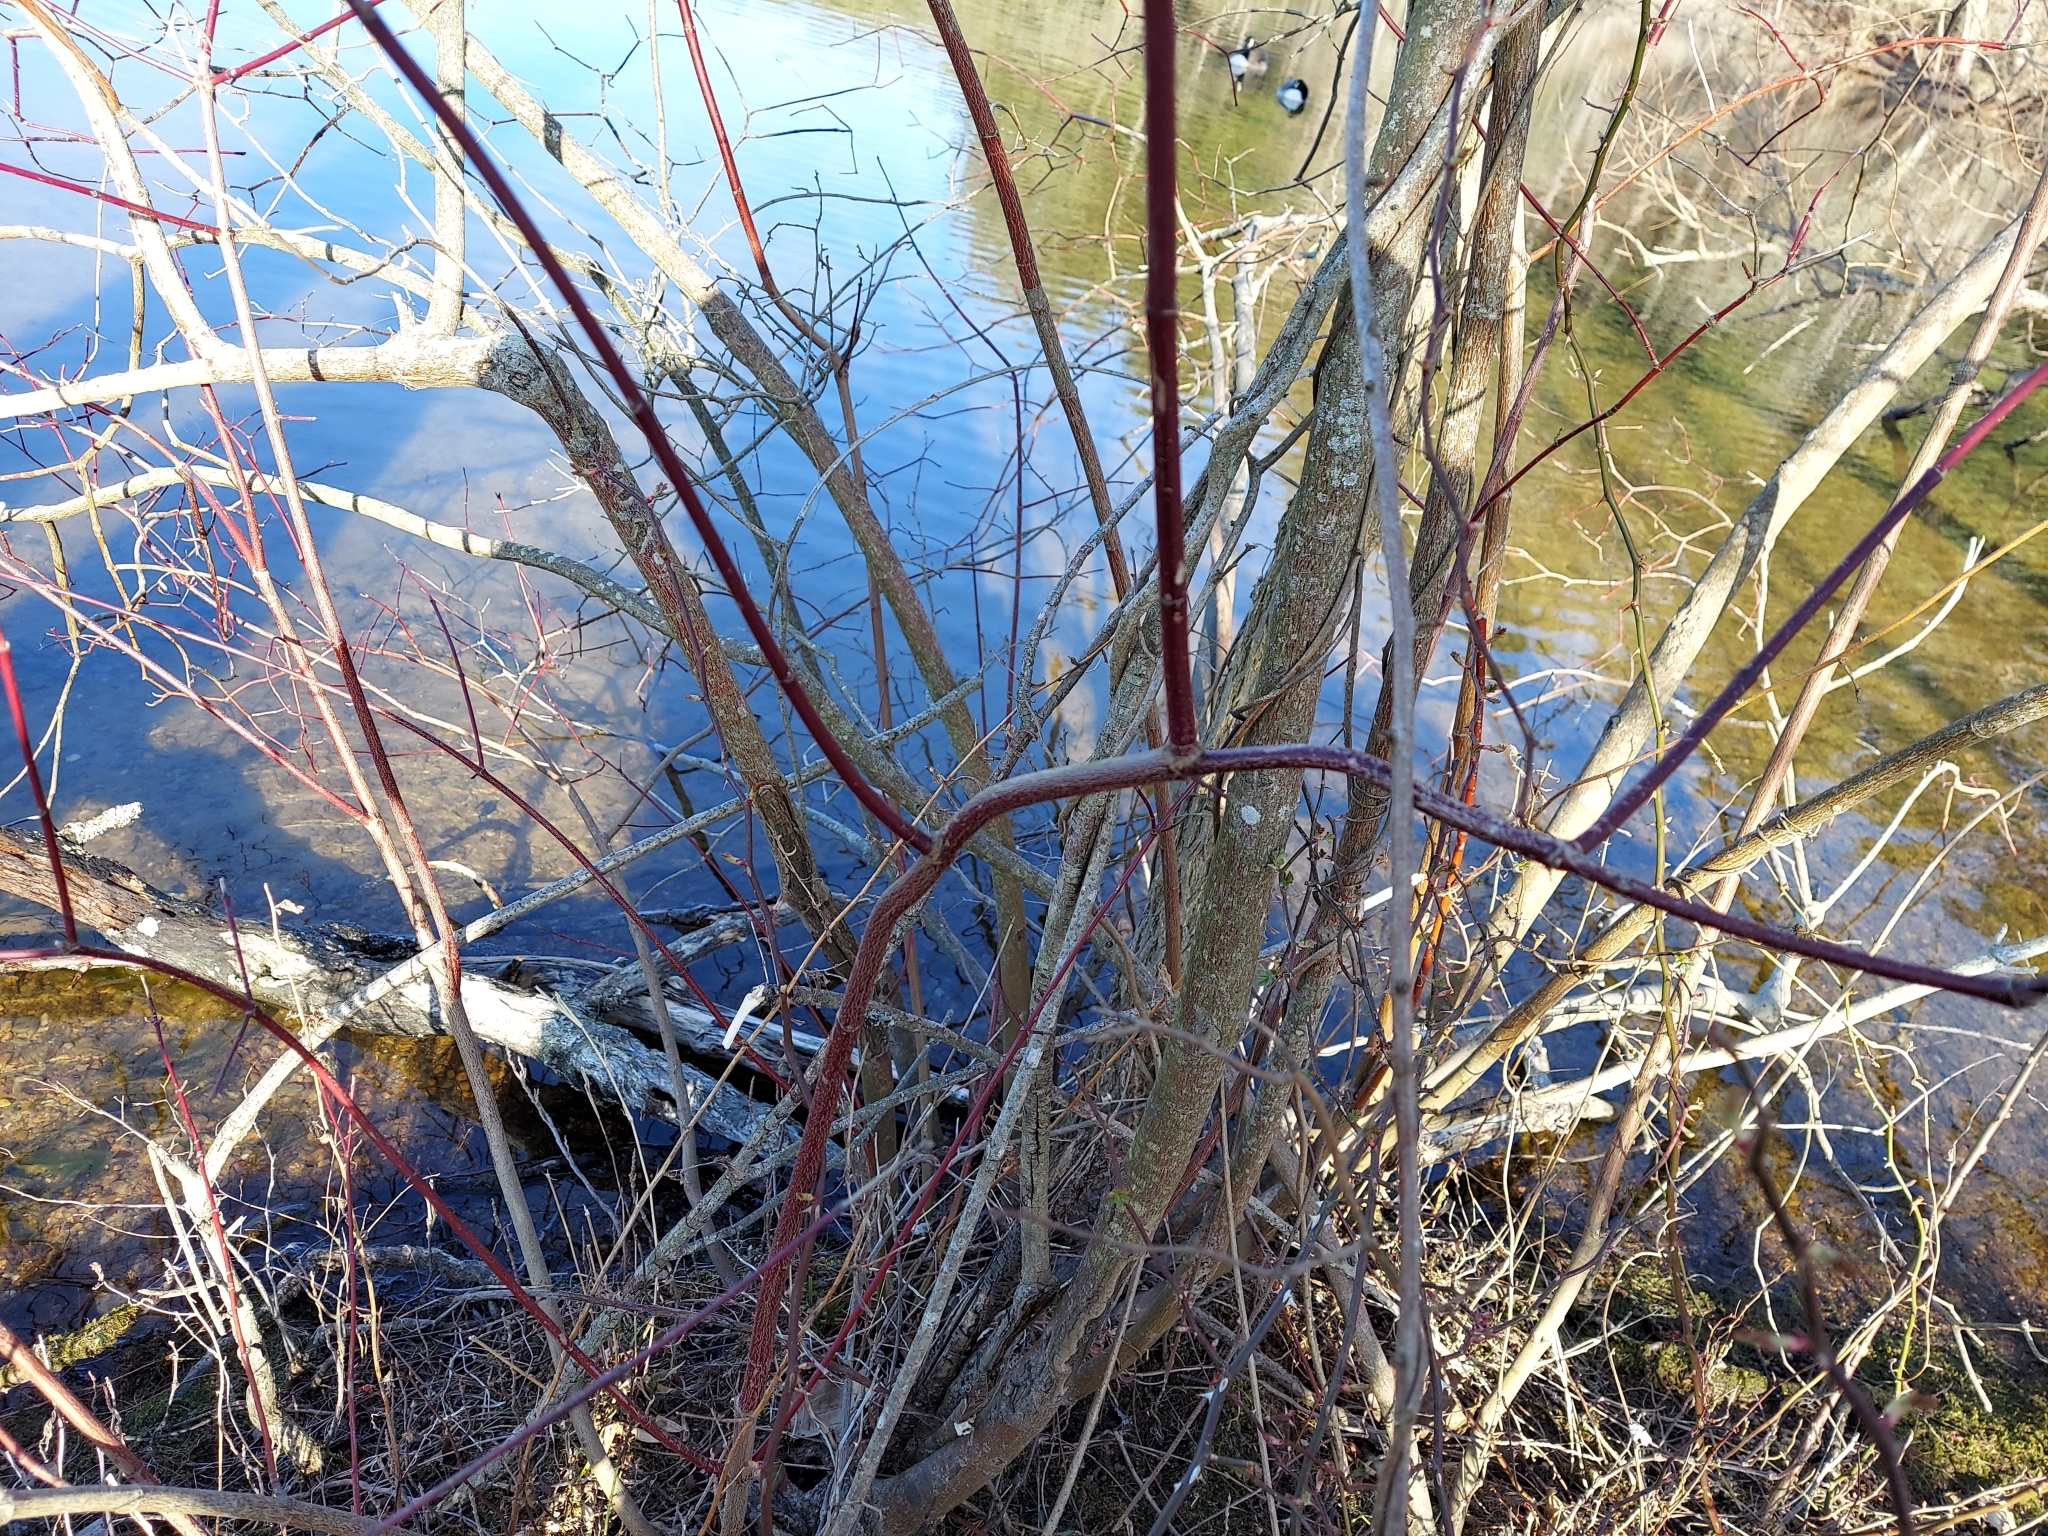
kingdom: Plantae
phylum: Tracheophyta
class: Magnoliopsida
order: Cornales
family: Cornaceae
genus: Cornus
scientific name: Cornus amomum
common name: Silky dogwood
